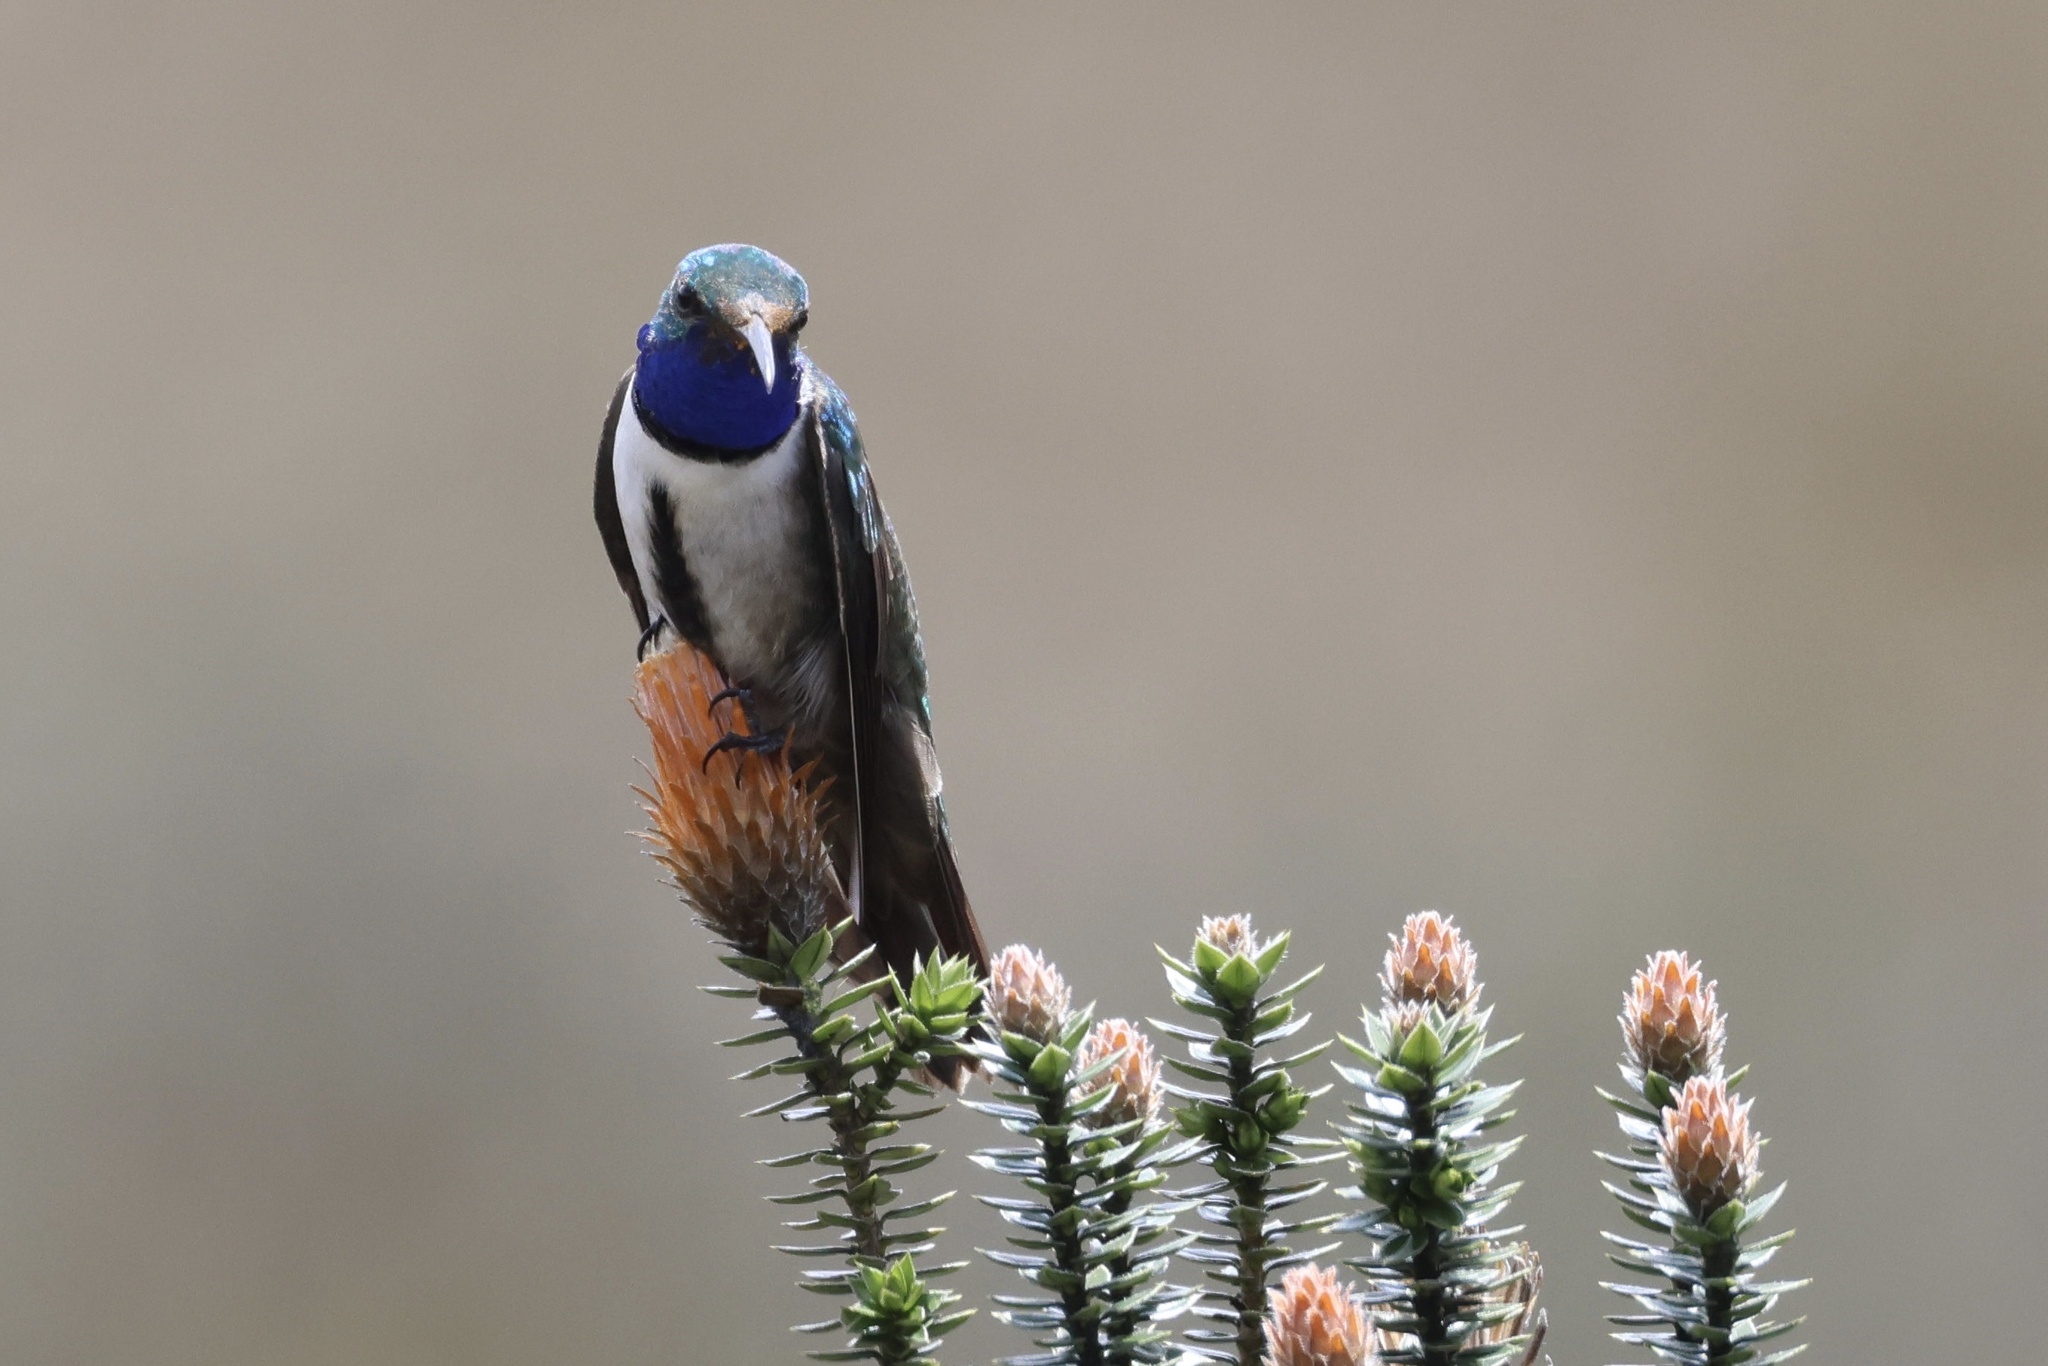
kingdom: Animalia
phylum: Chordata
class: Aves
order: Apodiformes
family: Trochilidae
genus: Oreotrochilus
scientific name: Oreotrochilus cyanolaemus
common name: Blue-throated hillstar
